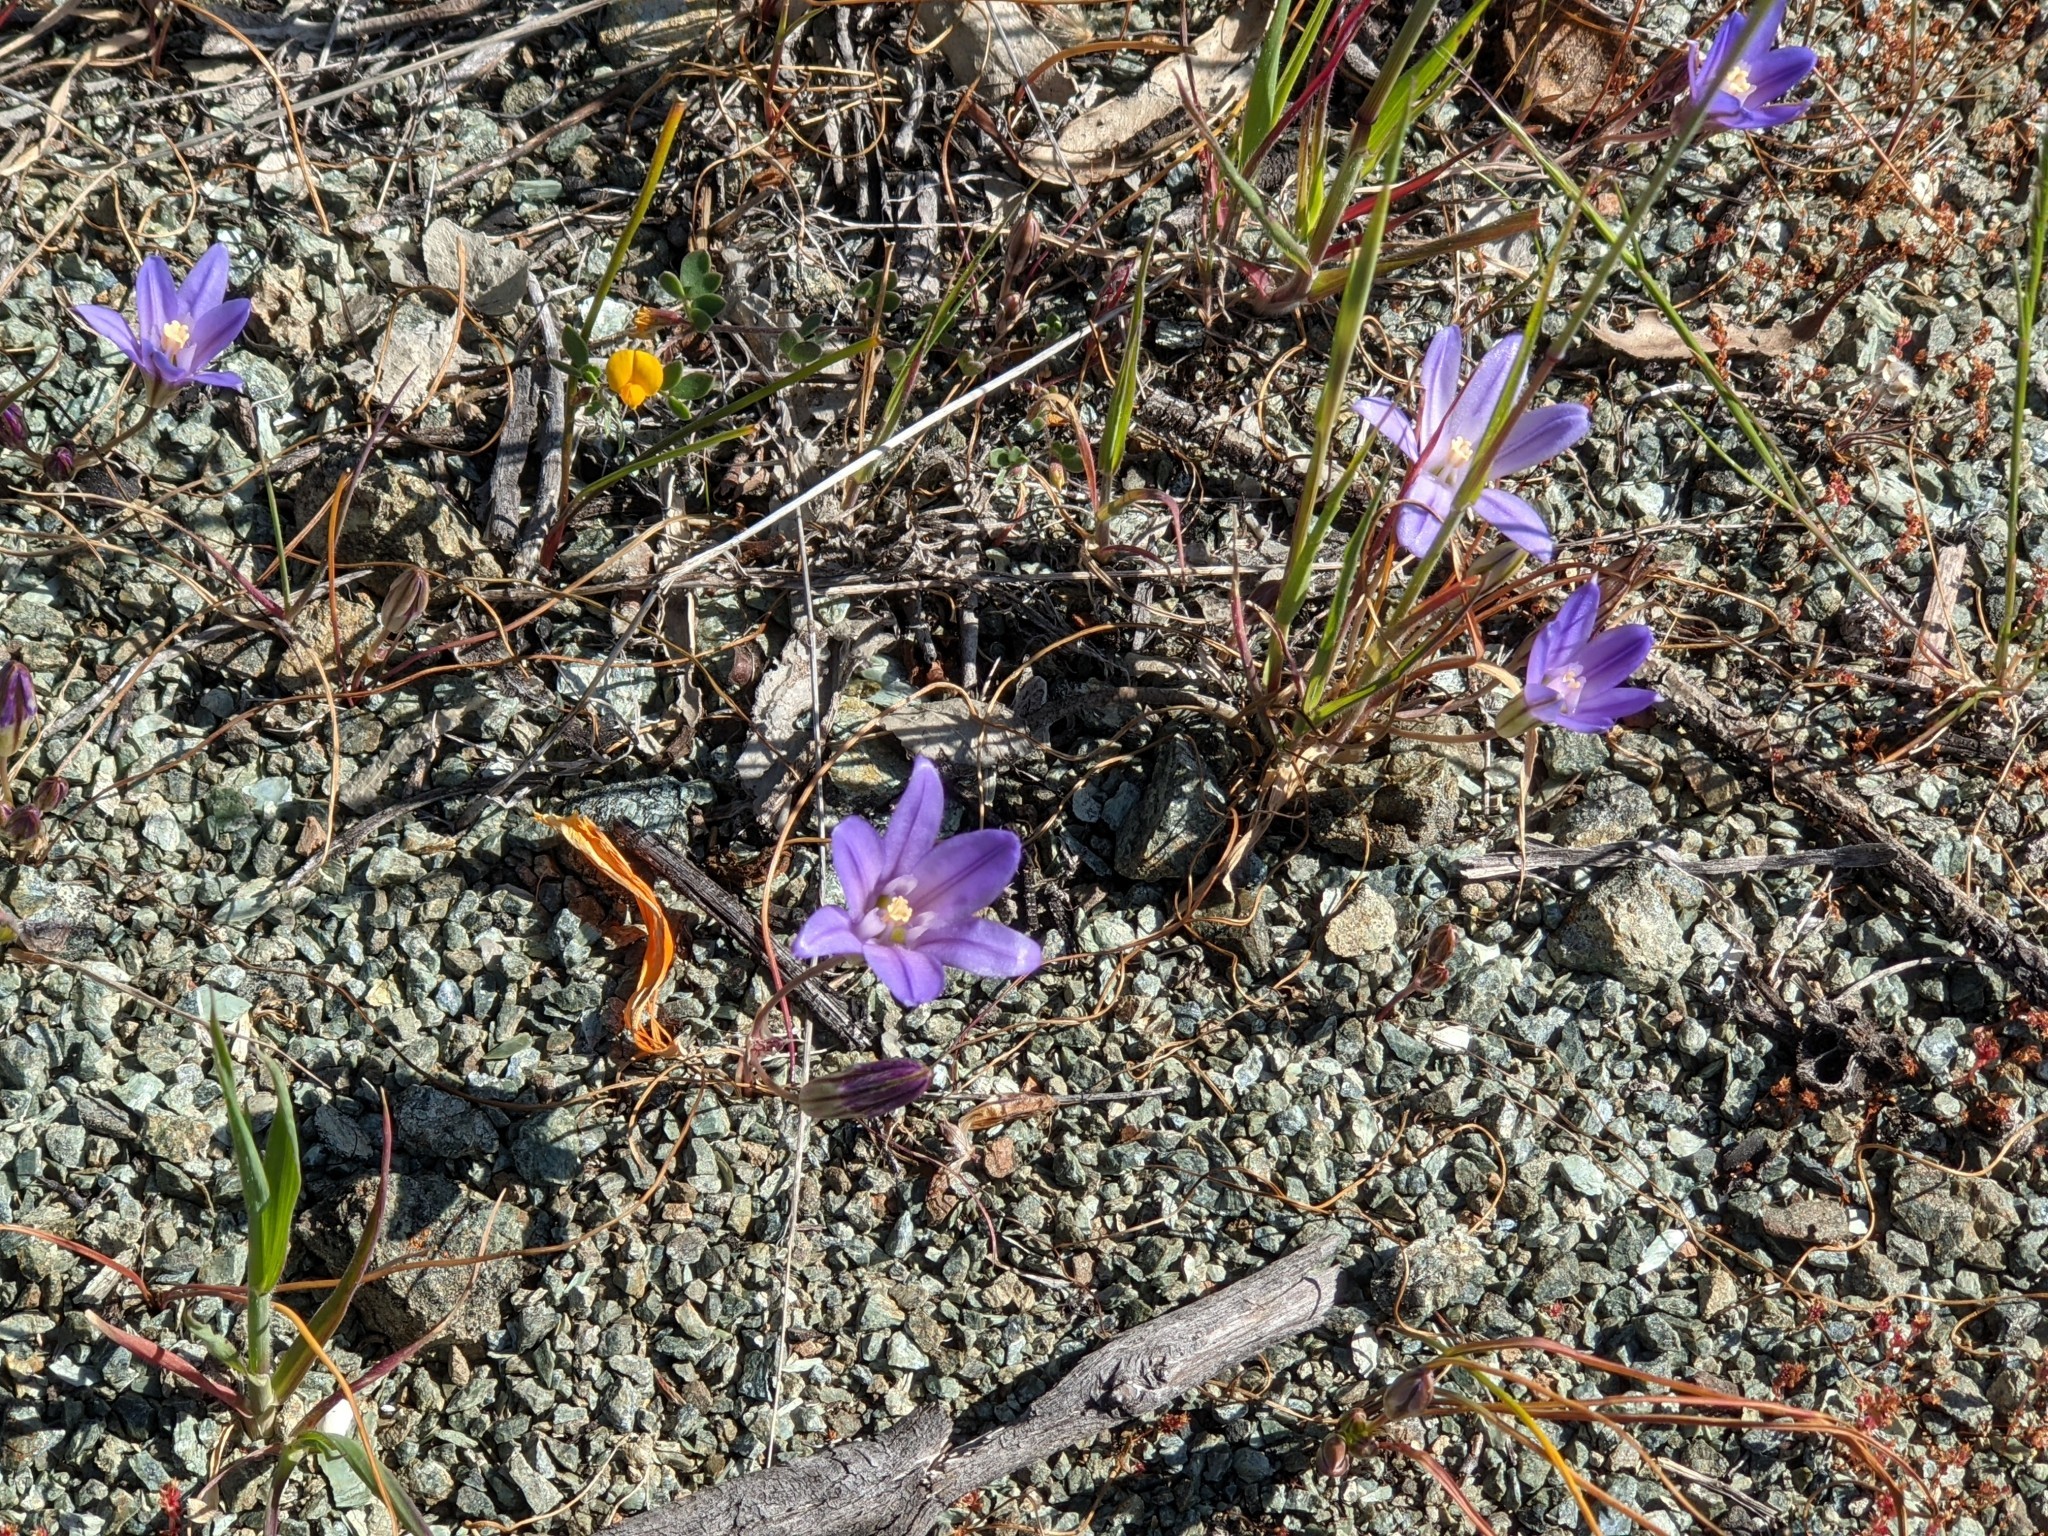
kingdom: Plantae
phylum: Tracheophyta
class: Liliopsida
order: Asparagales
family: Asparagaceae
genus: Brodiaea
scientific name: Brodiaea terrestris
